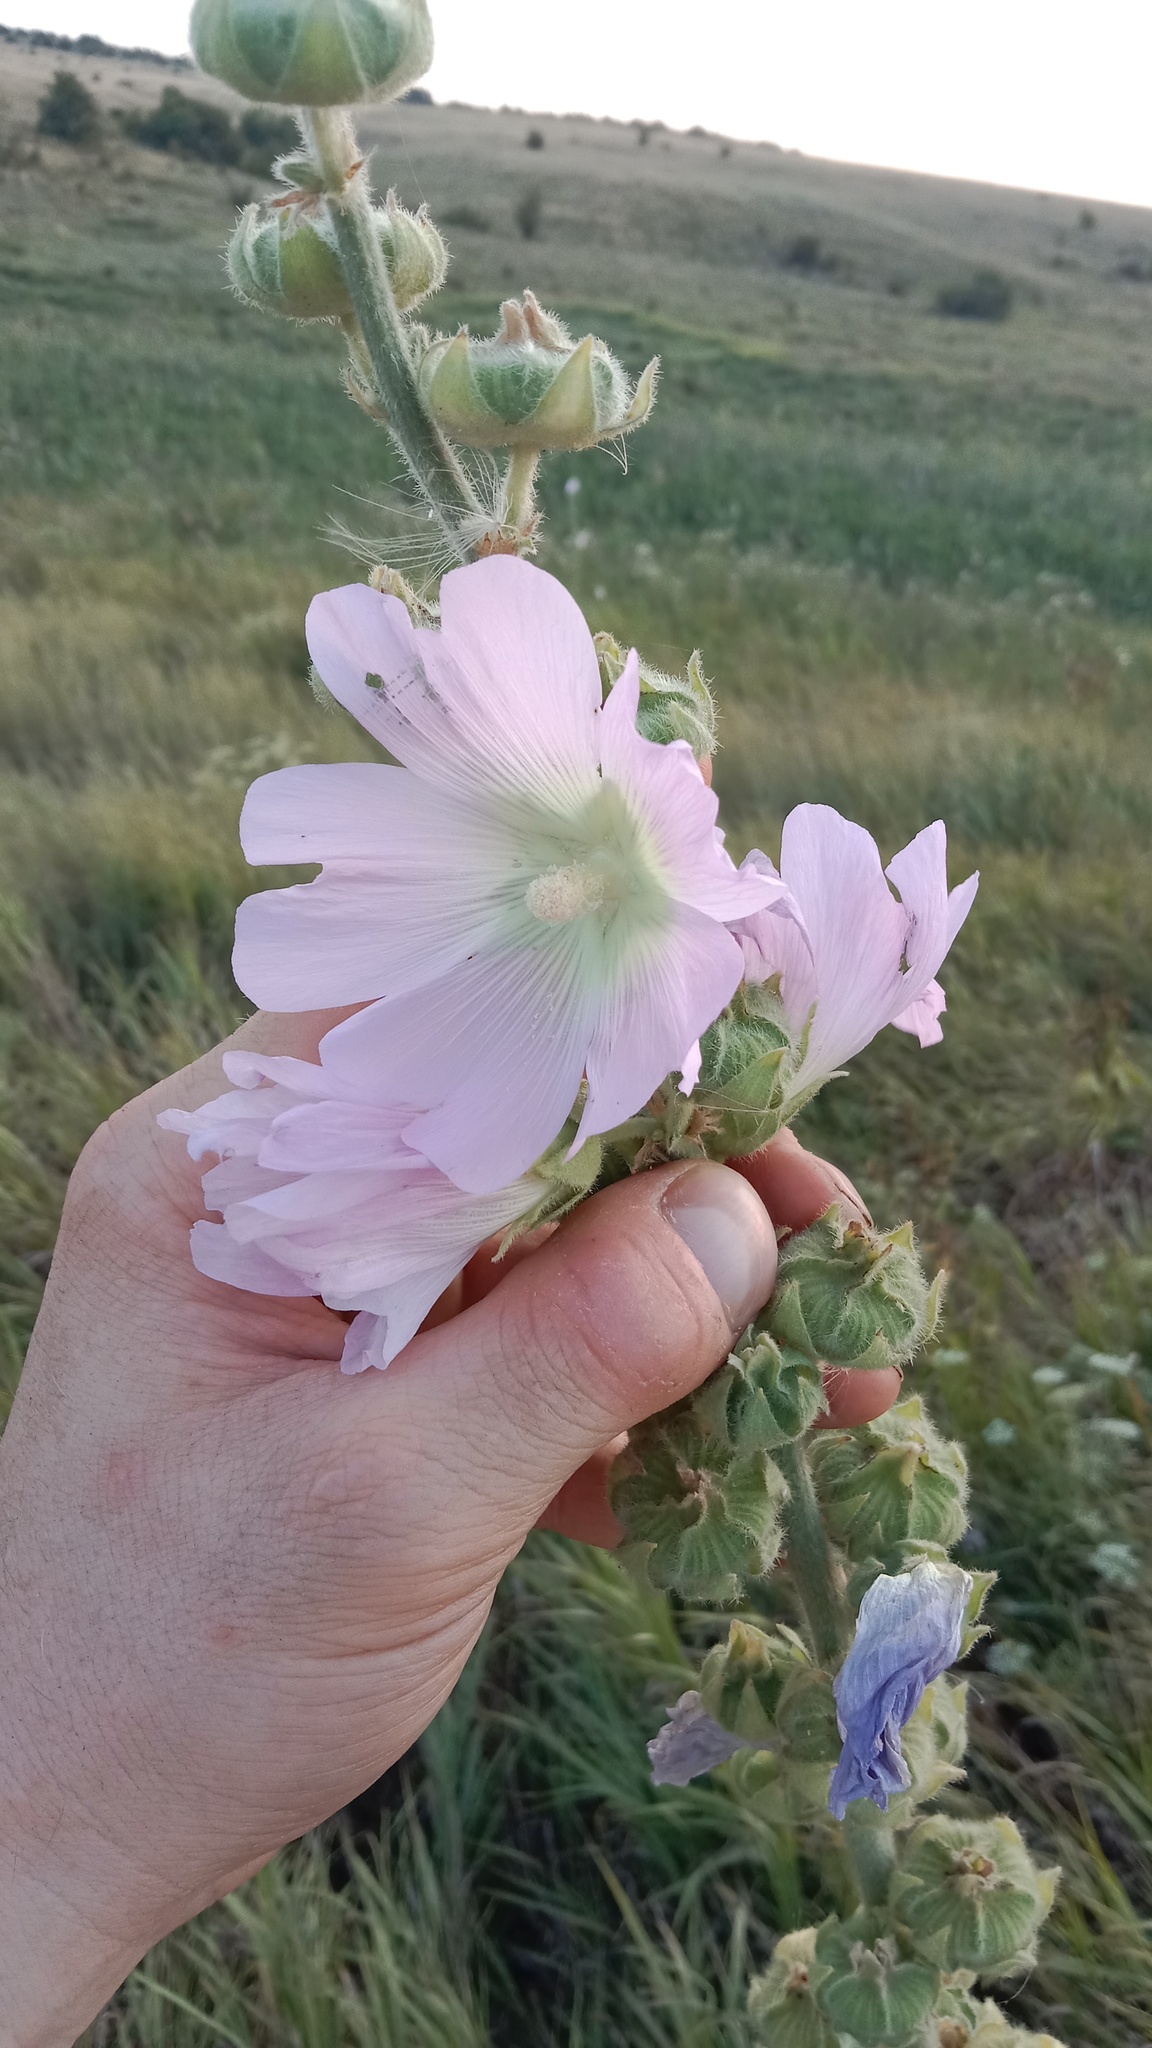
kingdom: Plantae
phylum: Tracheophyta
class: Magnoliopsida
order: Malvales
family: Malvaceae
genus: Malva
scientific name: Malva thuringiaca
